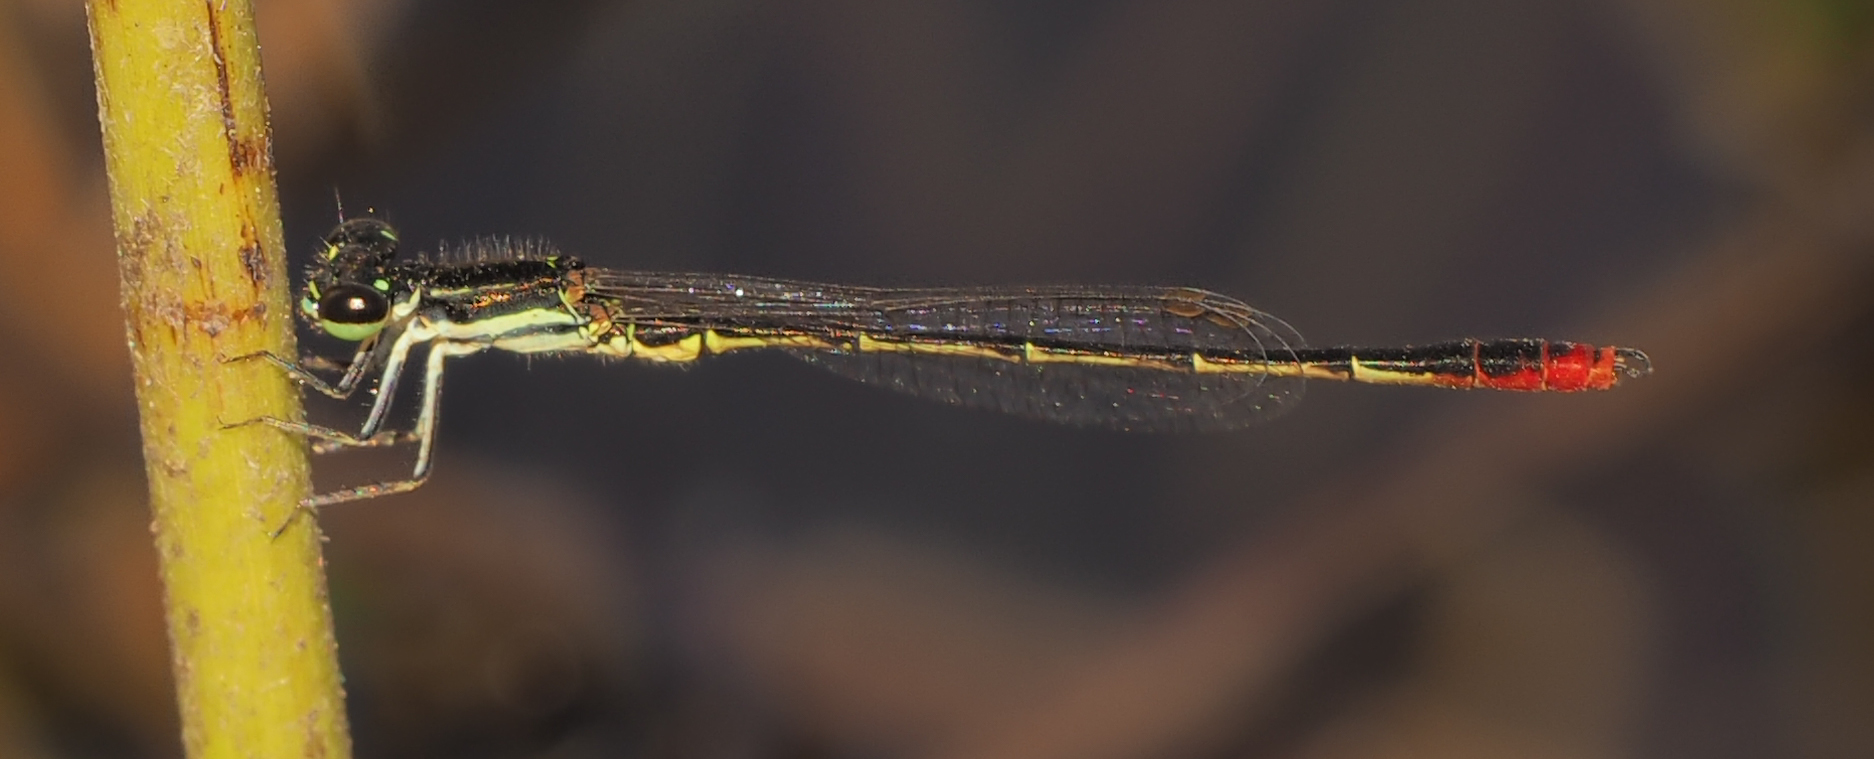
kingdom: Animalia
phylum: Arthropoda
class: Insecta
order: Odonata
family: Coenagrionidae
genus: Agriocnemis
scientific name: Agriocnemis victoria
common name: Lesser pincer-tailed wisp
